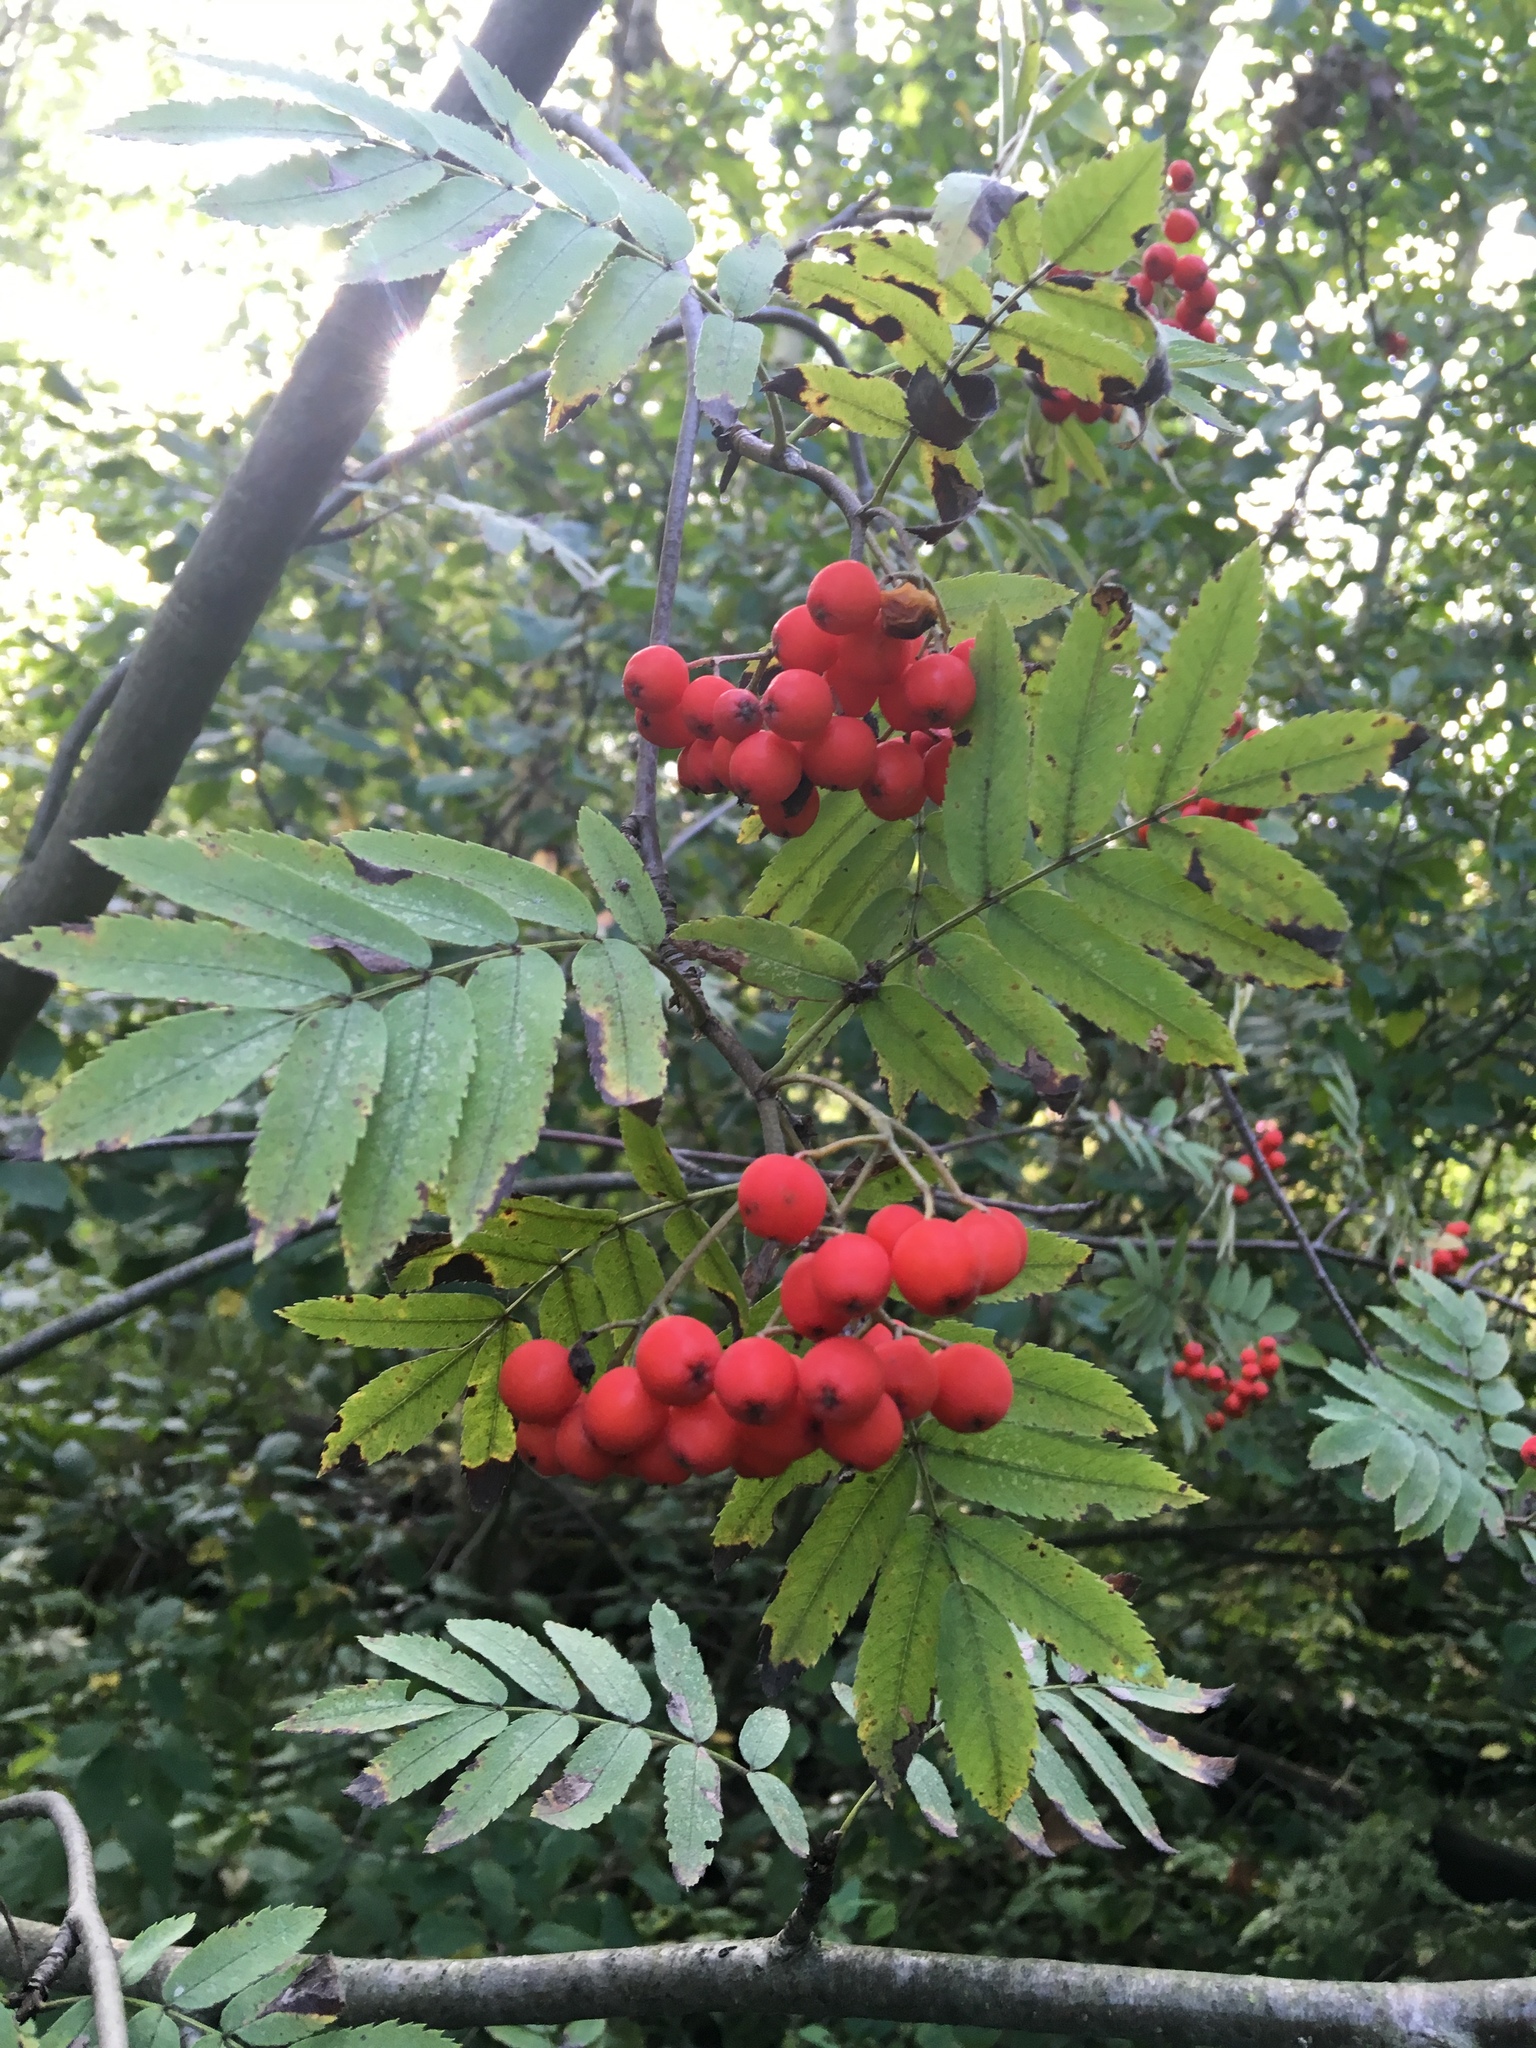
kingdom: Plantae
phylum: Tracheophyta
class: Magnoliopsida
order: Rosales
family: Rosaceae
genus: Sorbus
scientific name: Sorbus aucuparia
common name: Rowan
